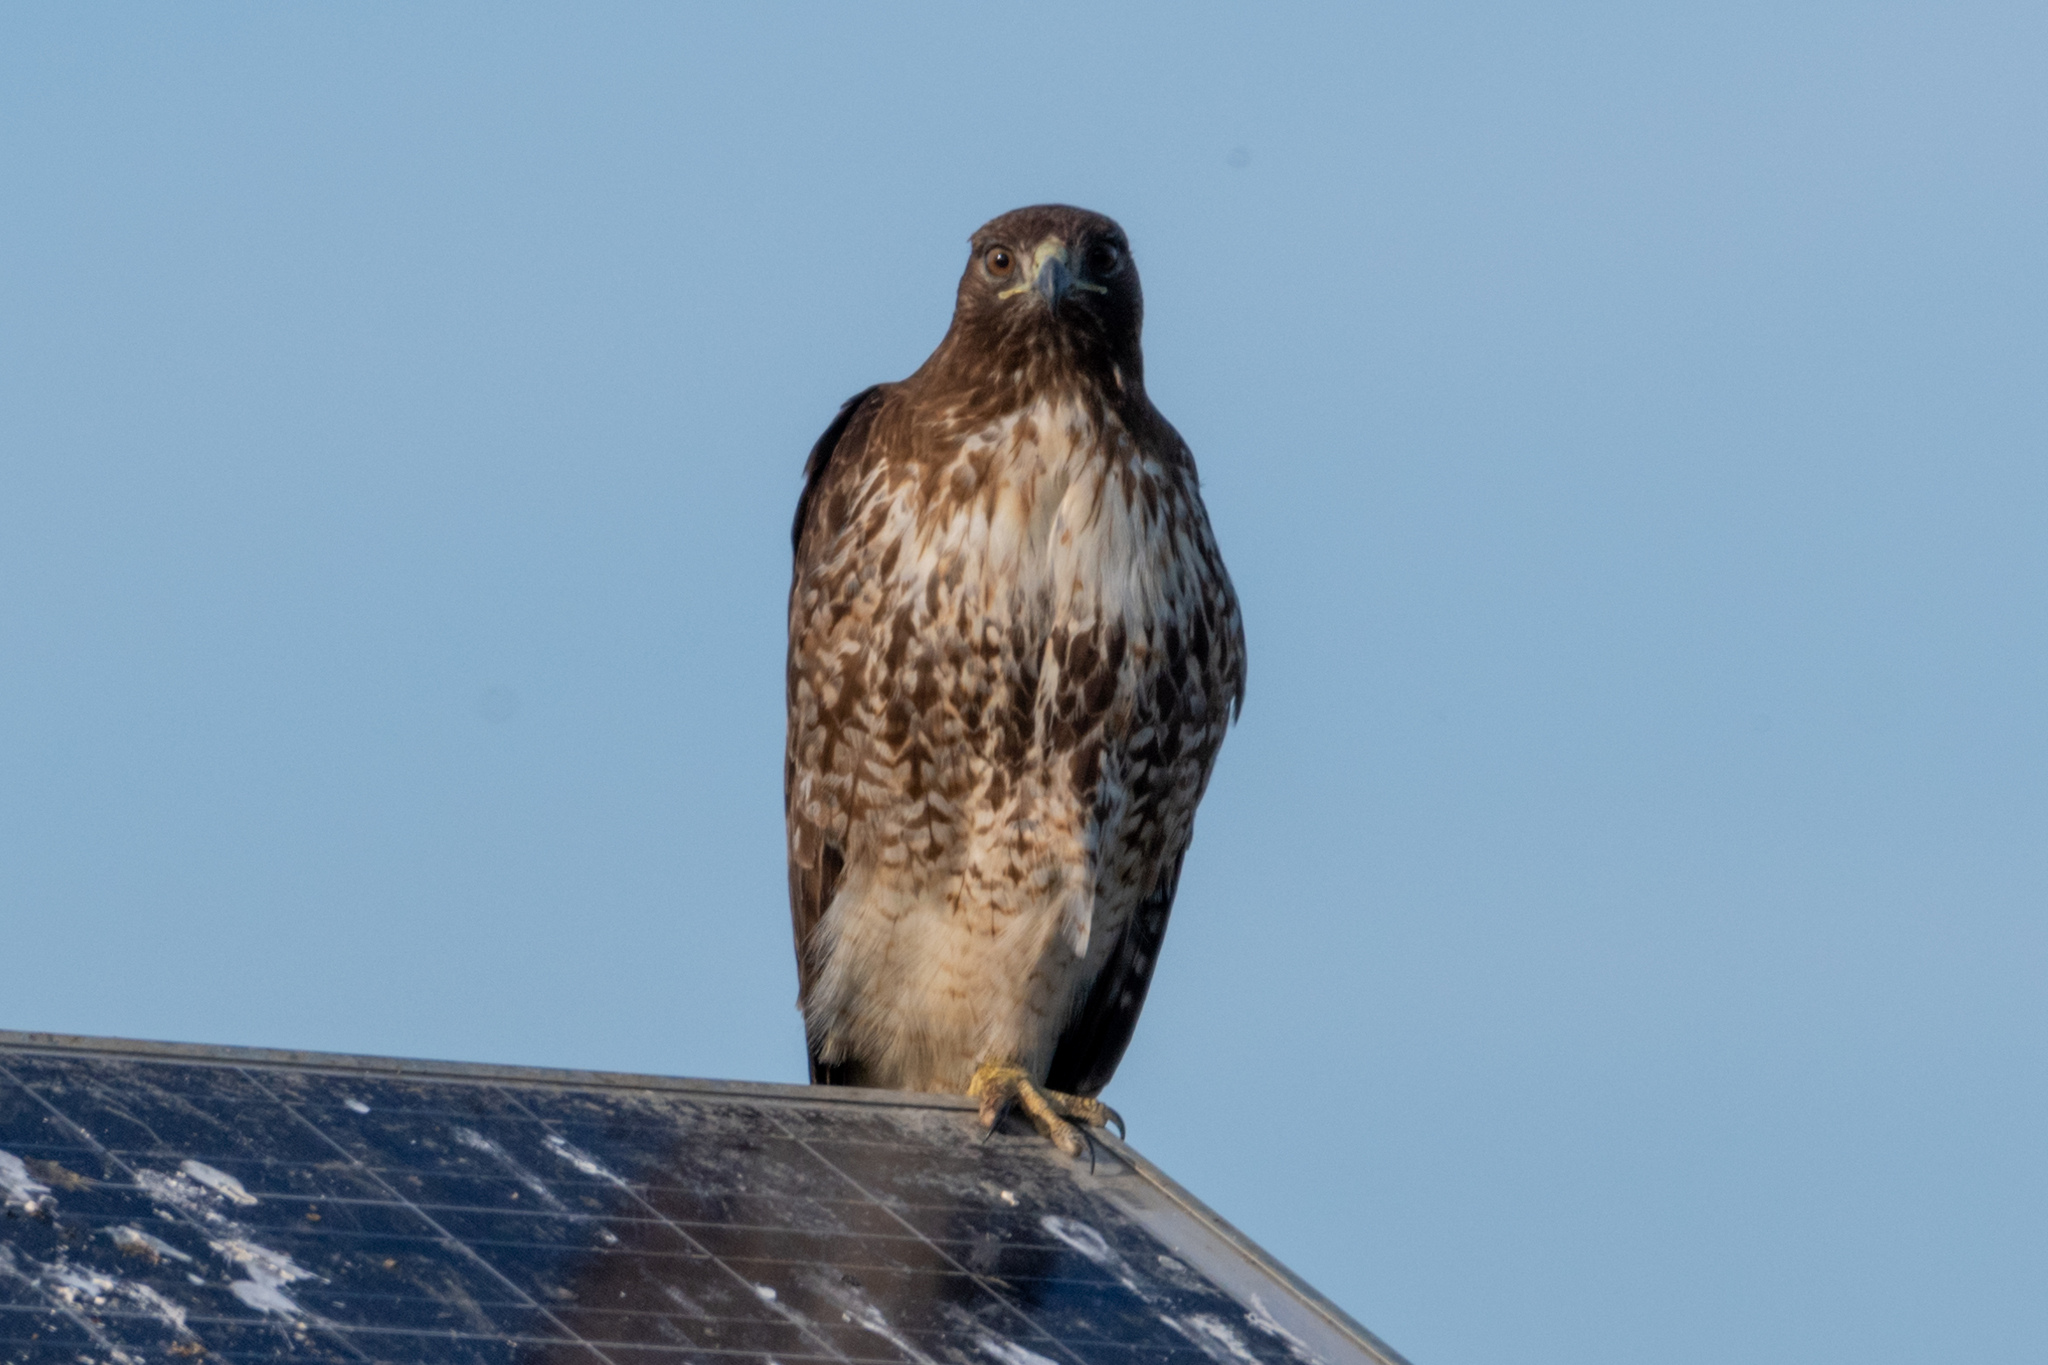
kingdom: Animalia
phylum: Chordata
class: Aves
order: Accipitriformes
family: Accipitridae
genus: Buteo
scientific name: Buteo jamaicensis
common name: Red-tailed hawk
